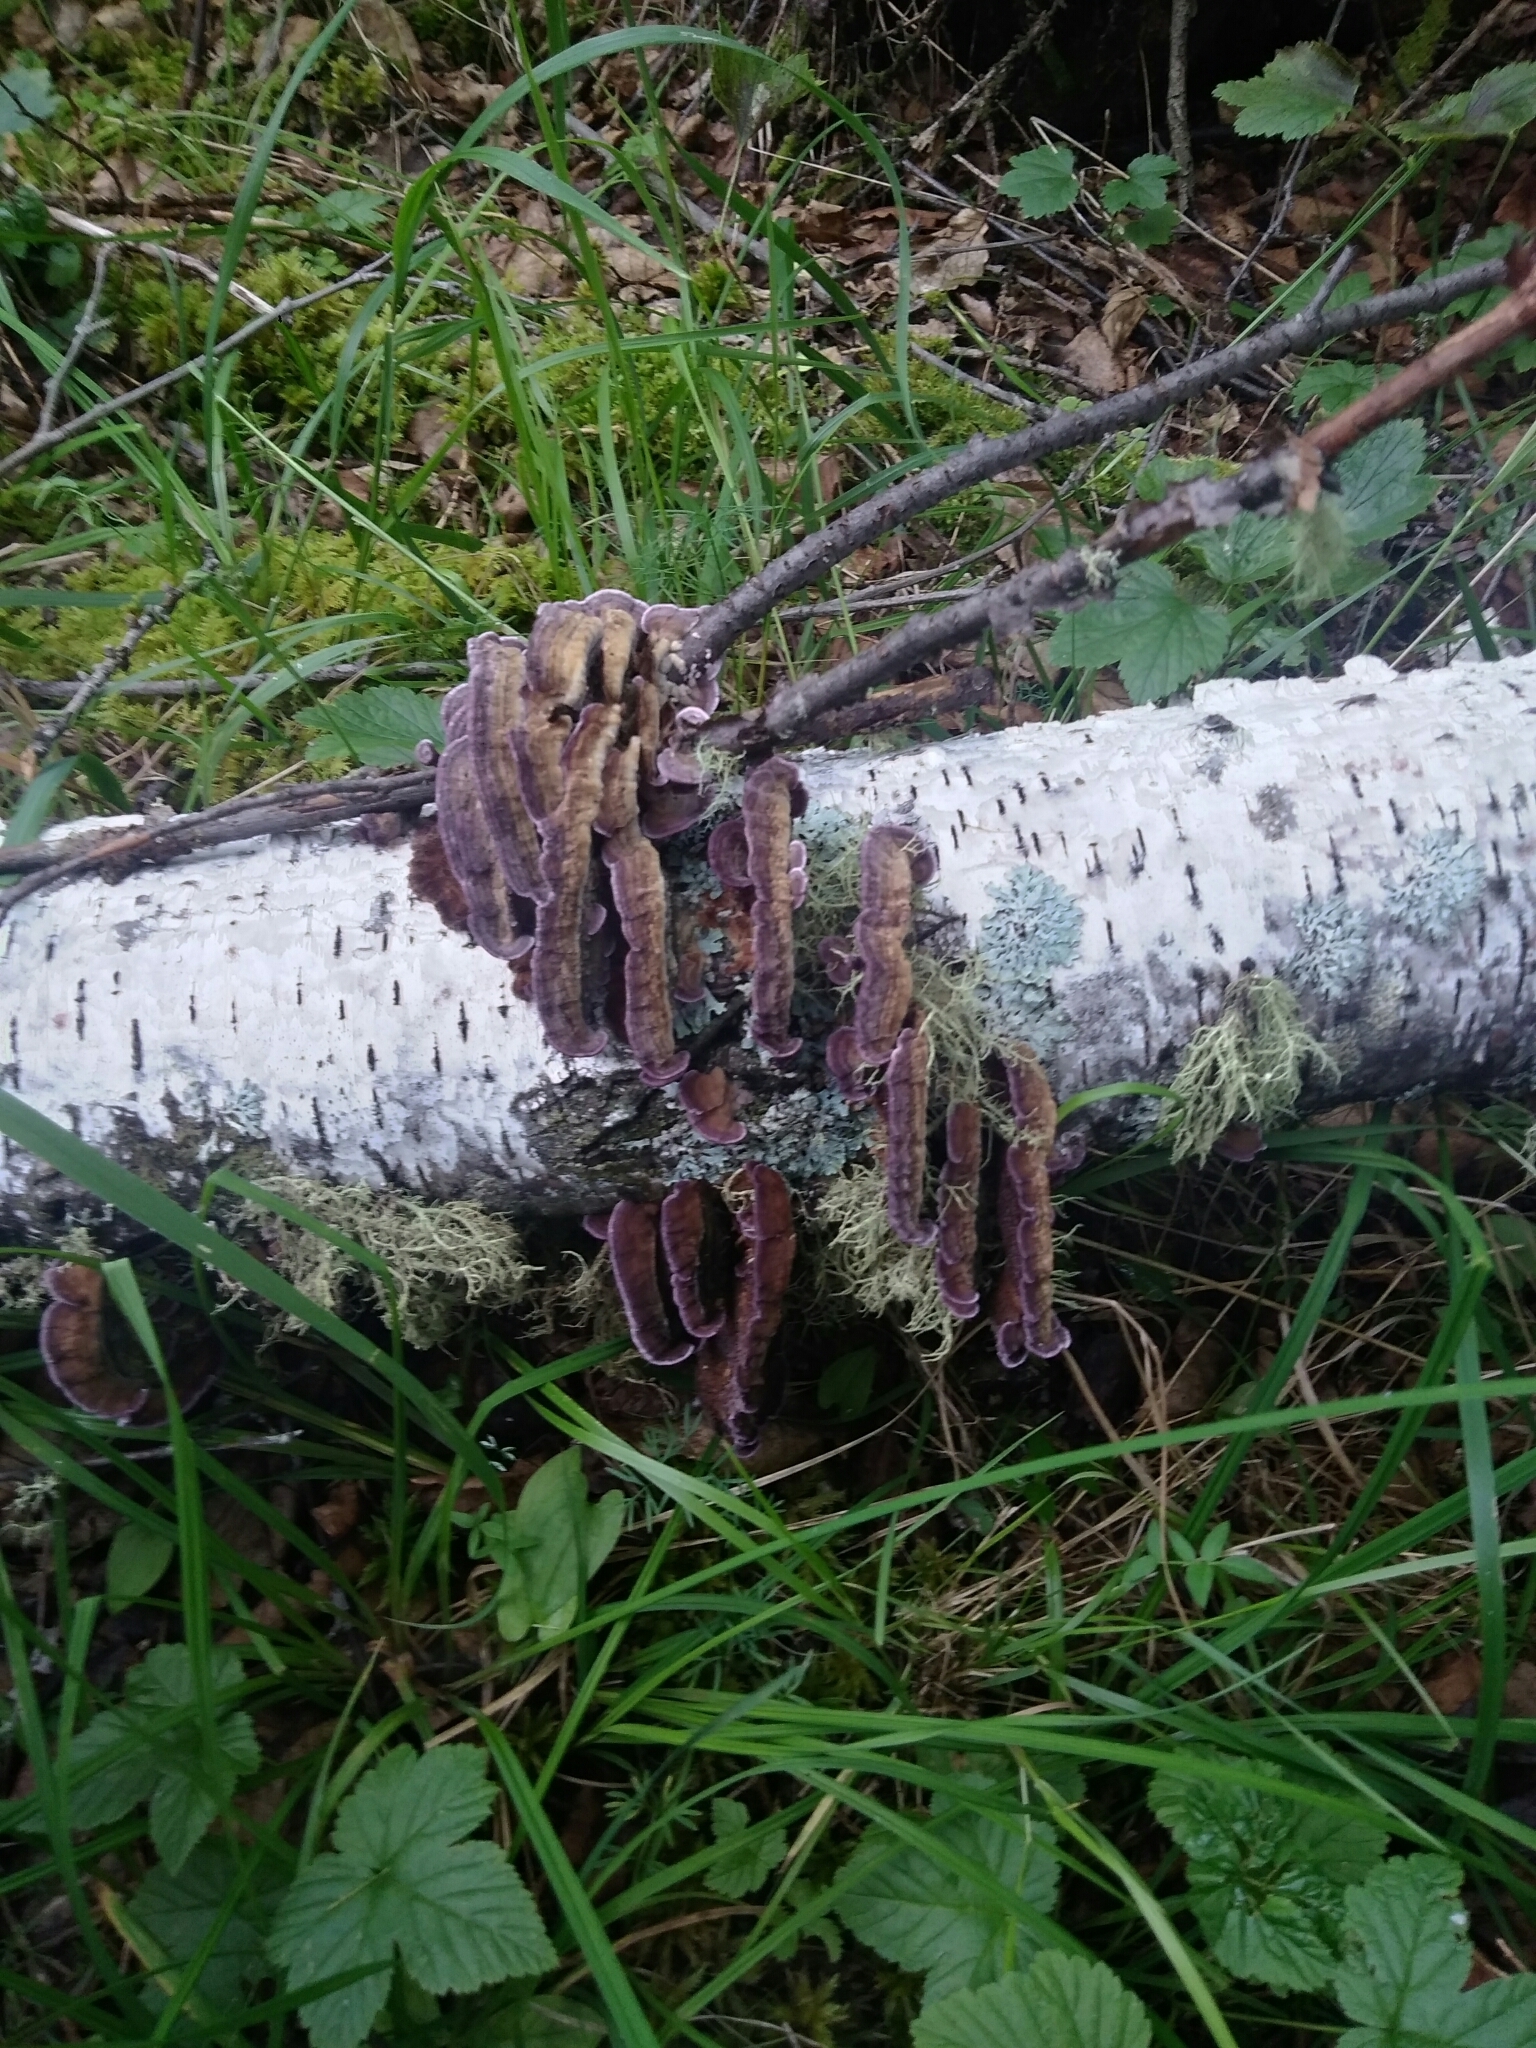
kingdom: Fungi
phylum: Basidiomycota
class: Agaricomycetes
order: Hymenochaetales
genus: Trichaptum
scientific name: Trichaptum biforme
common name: Violet-toothed polypore
